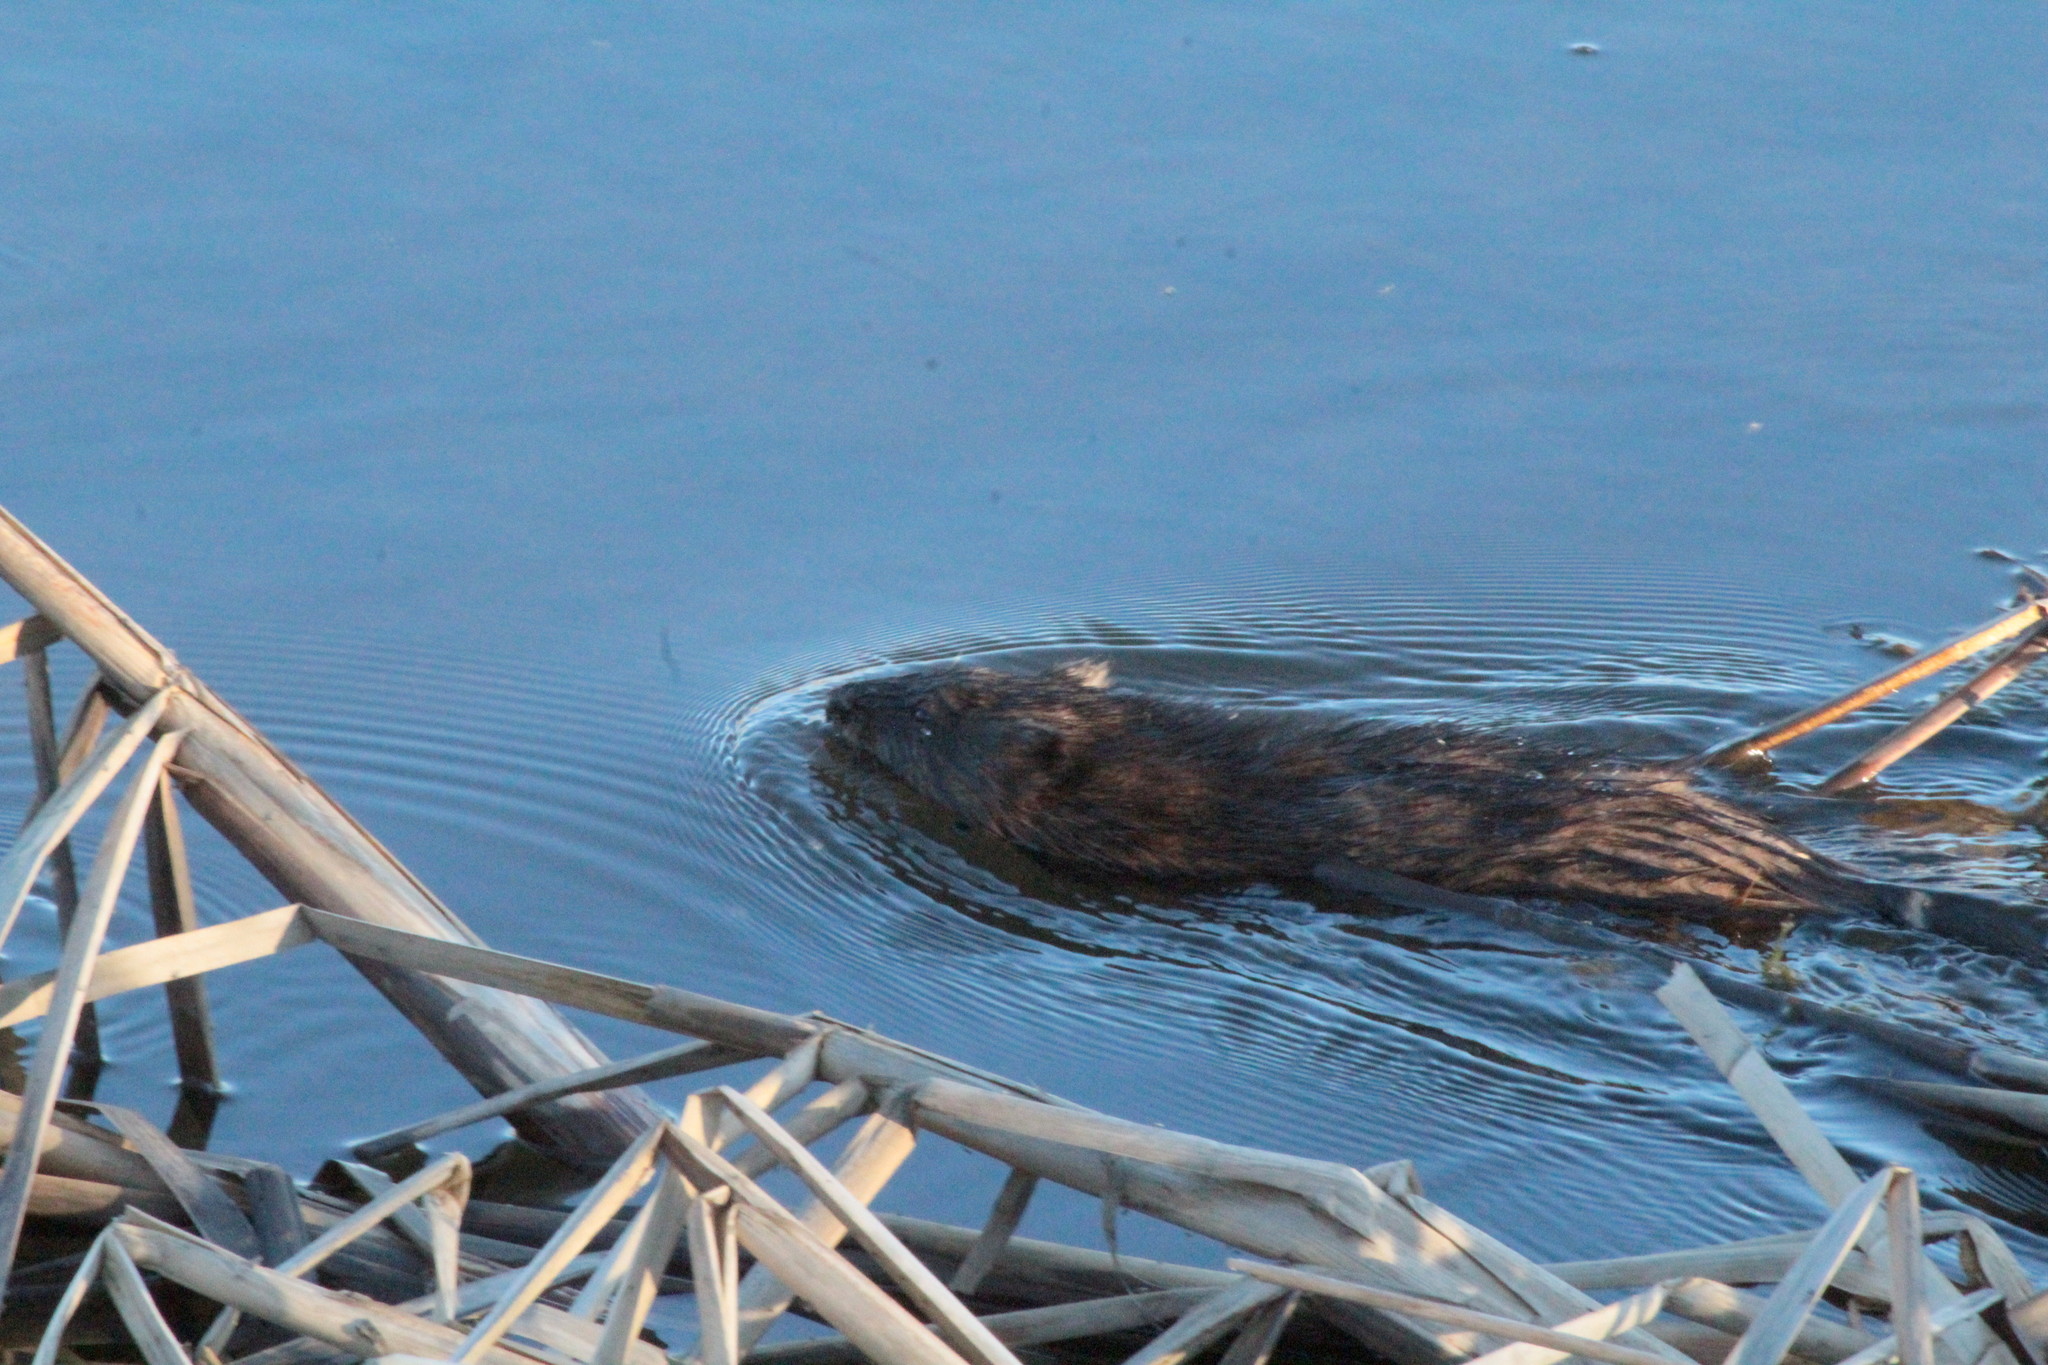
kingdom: Animalia
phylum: Chordata
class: Mammalia
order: Rodentia
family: Cricetidae
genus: Ondatra
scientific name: Ondatra zibethicus
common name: Muskrat
